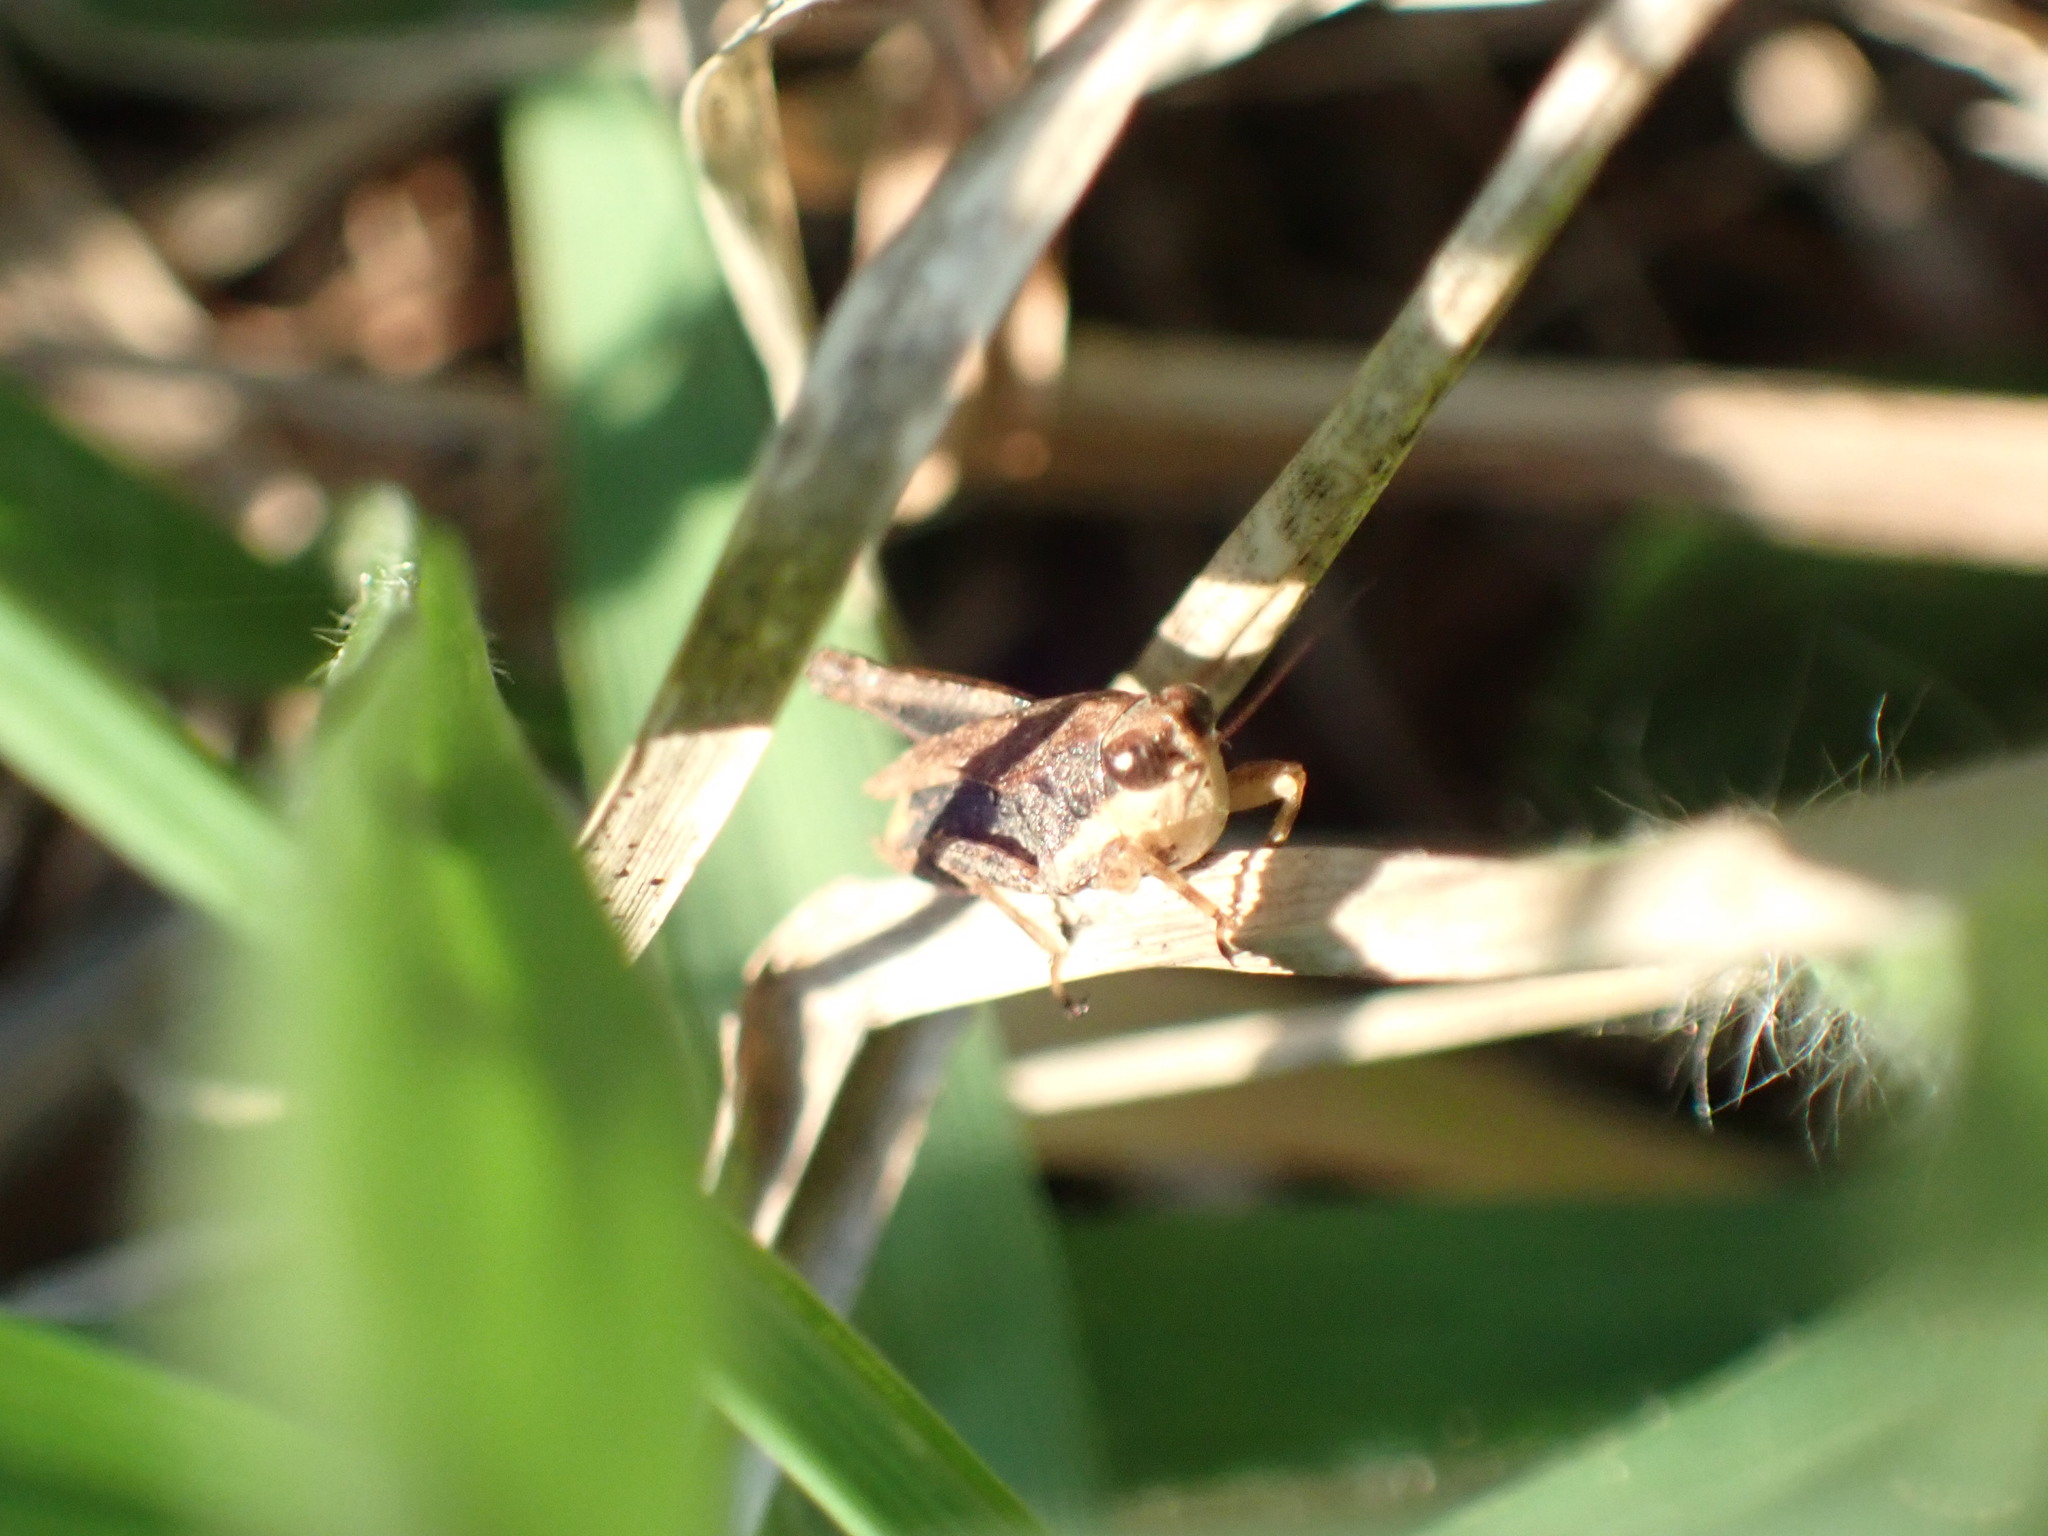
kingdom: Animalia
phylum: Arthropoda
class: Insecta
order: Orthoptera
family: Tetrigidae
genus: Tettigidea
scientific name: Tettigidea laterale
